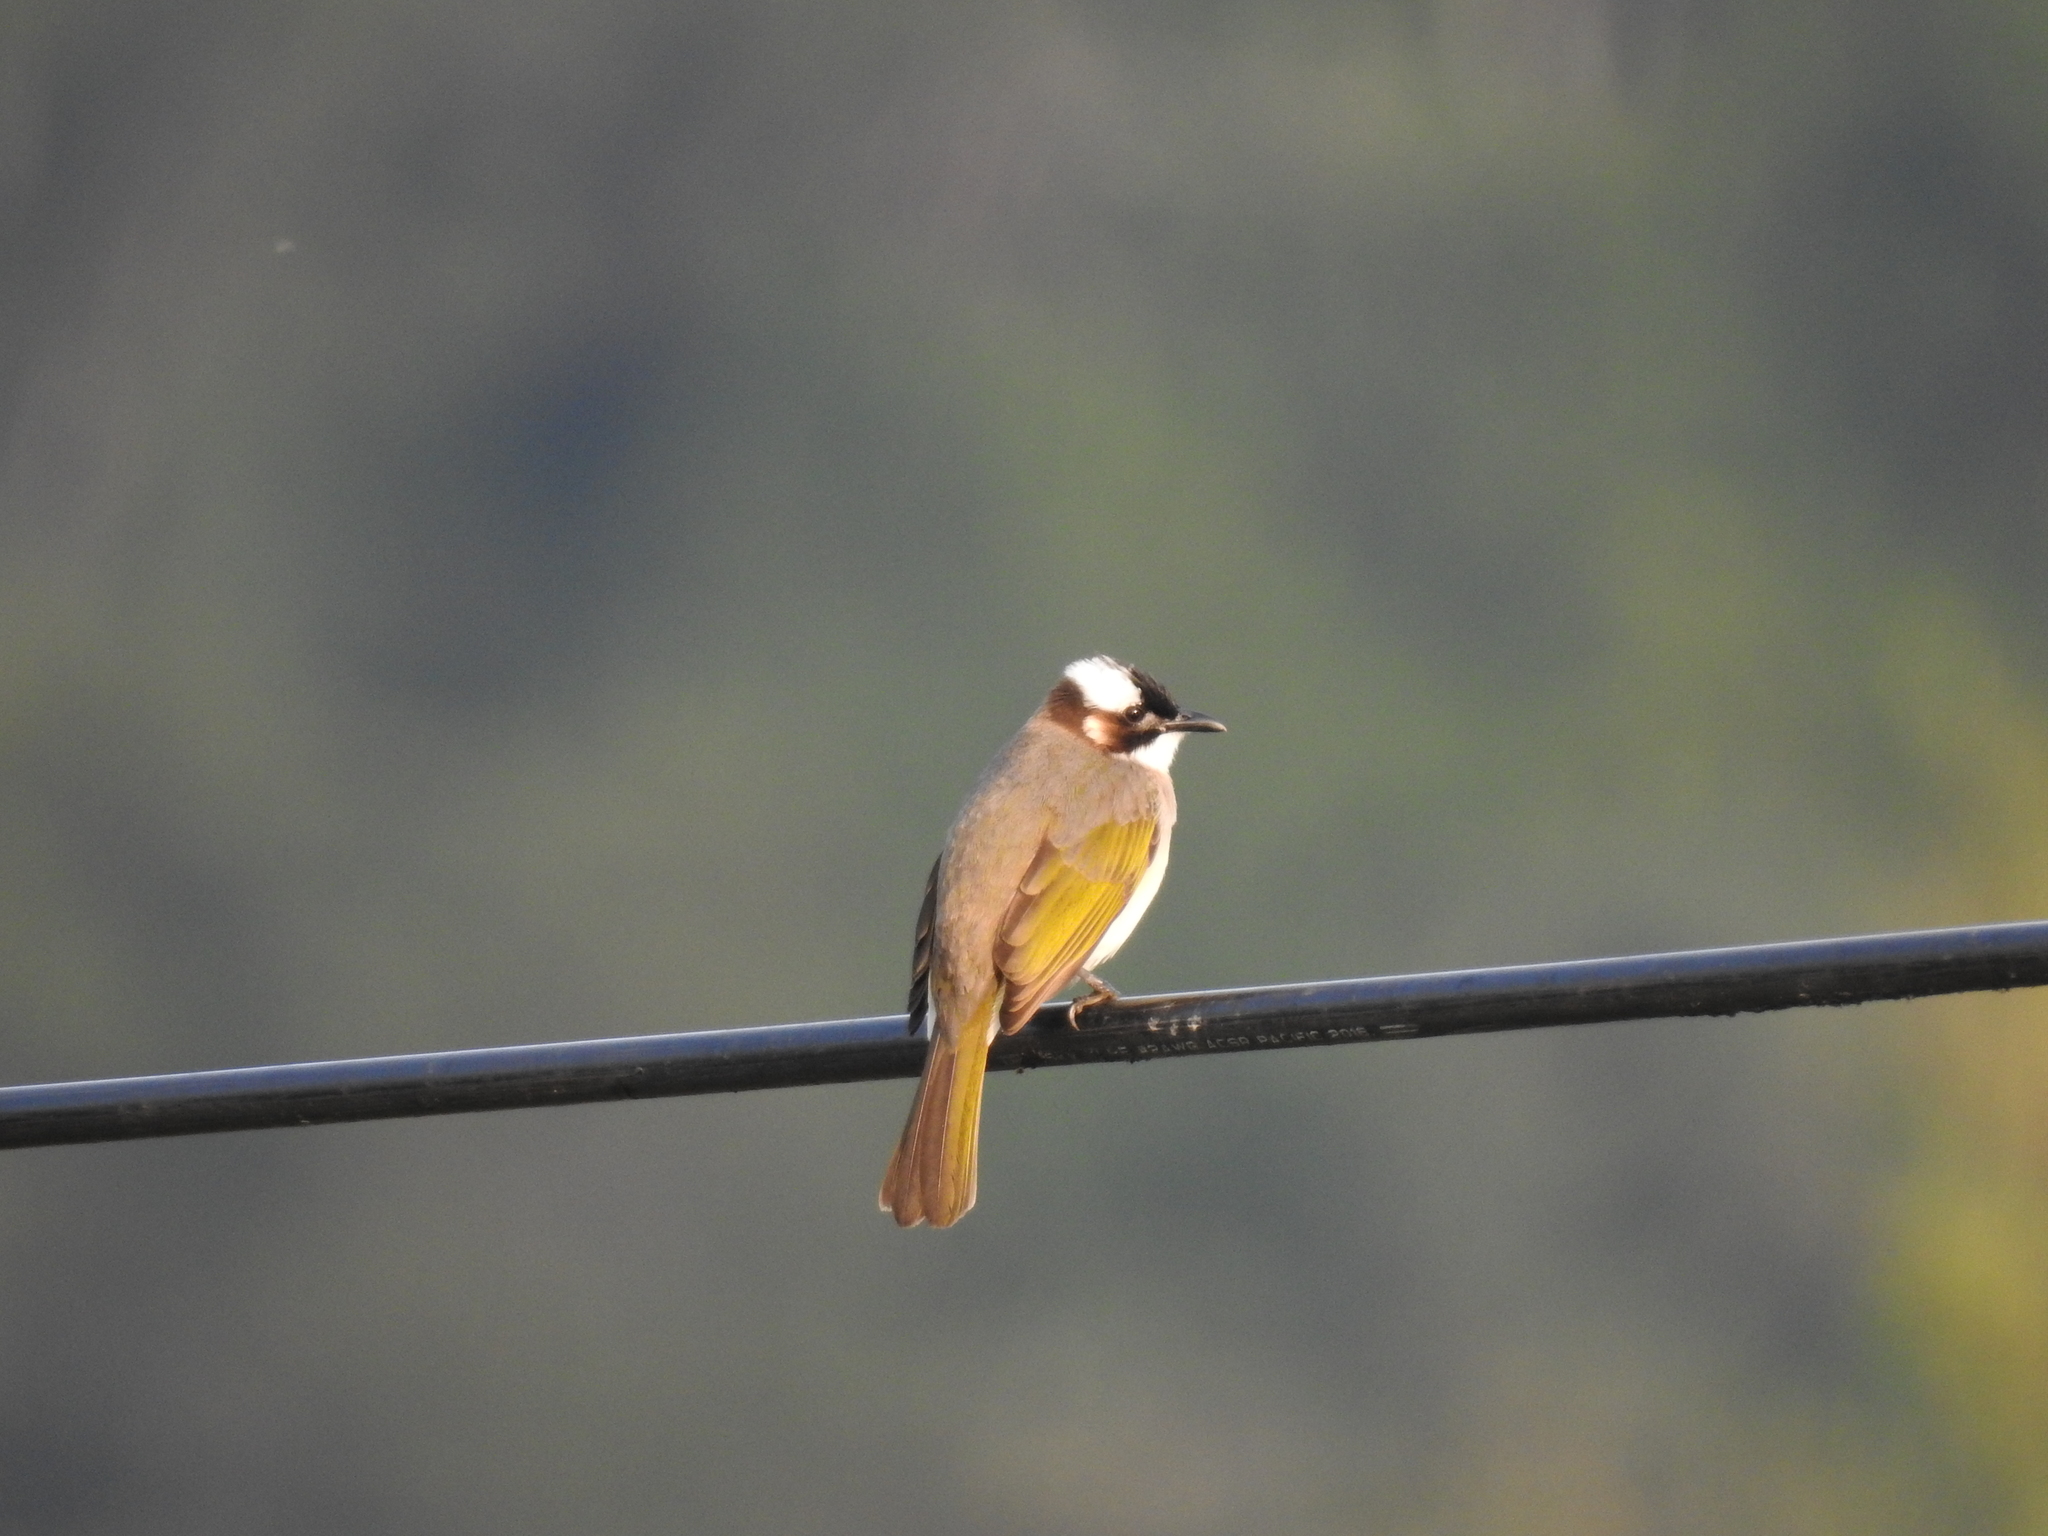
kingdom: Animalia
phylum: Chordata
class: Aves
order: Passeriformes
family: Pycnonotidae
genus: Pycnonotus
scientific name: Pycnonotus sinensis
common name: Light-vented bulbul
